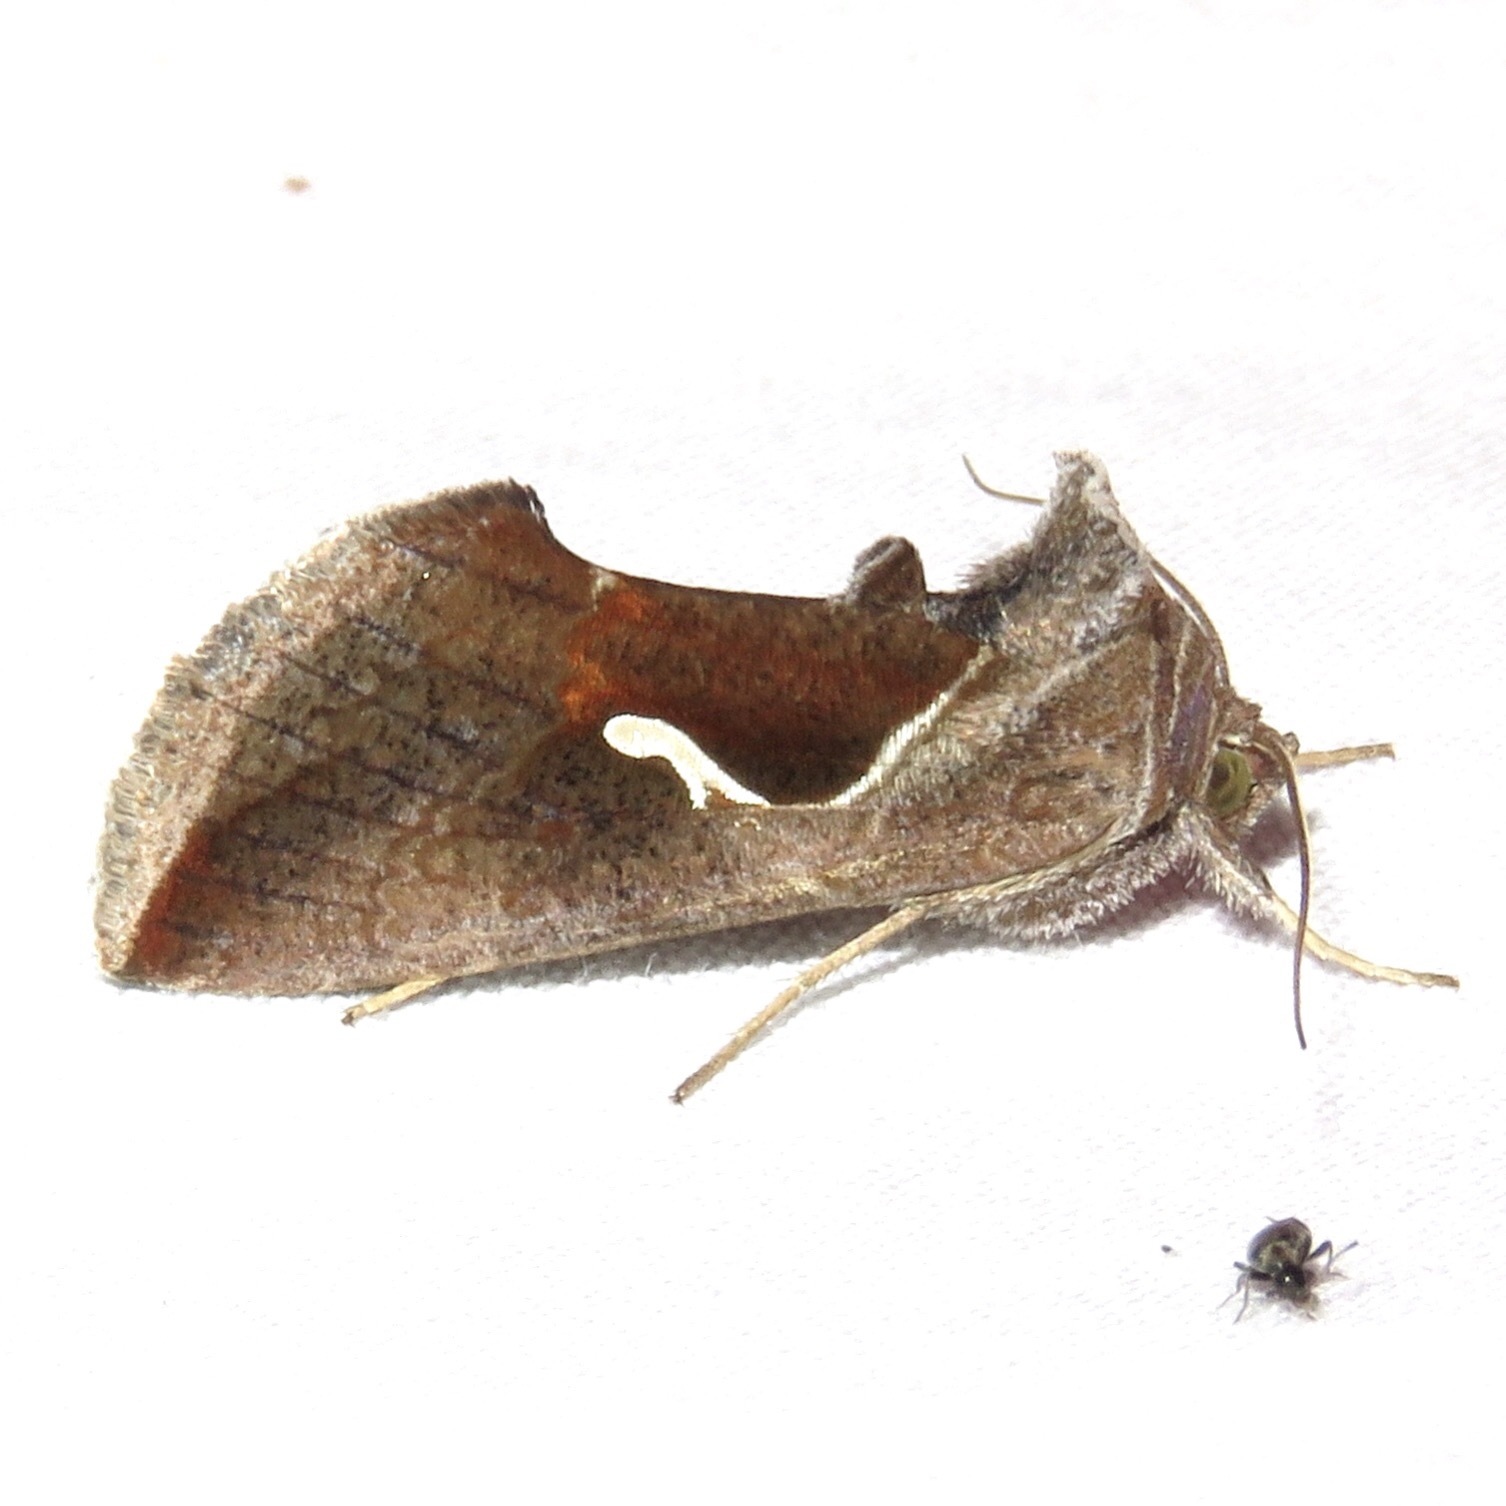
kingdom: Animalia
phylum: Arthropoda
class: Insecta
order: Lepidoptera
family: Noctuidae
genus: Anagrapha
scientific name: Anagrapha falcifera
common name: Celery looper
